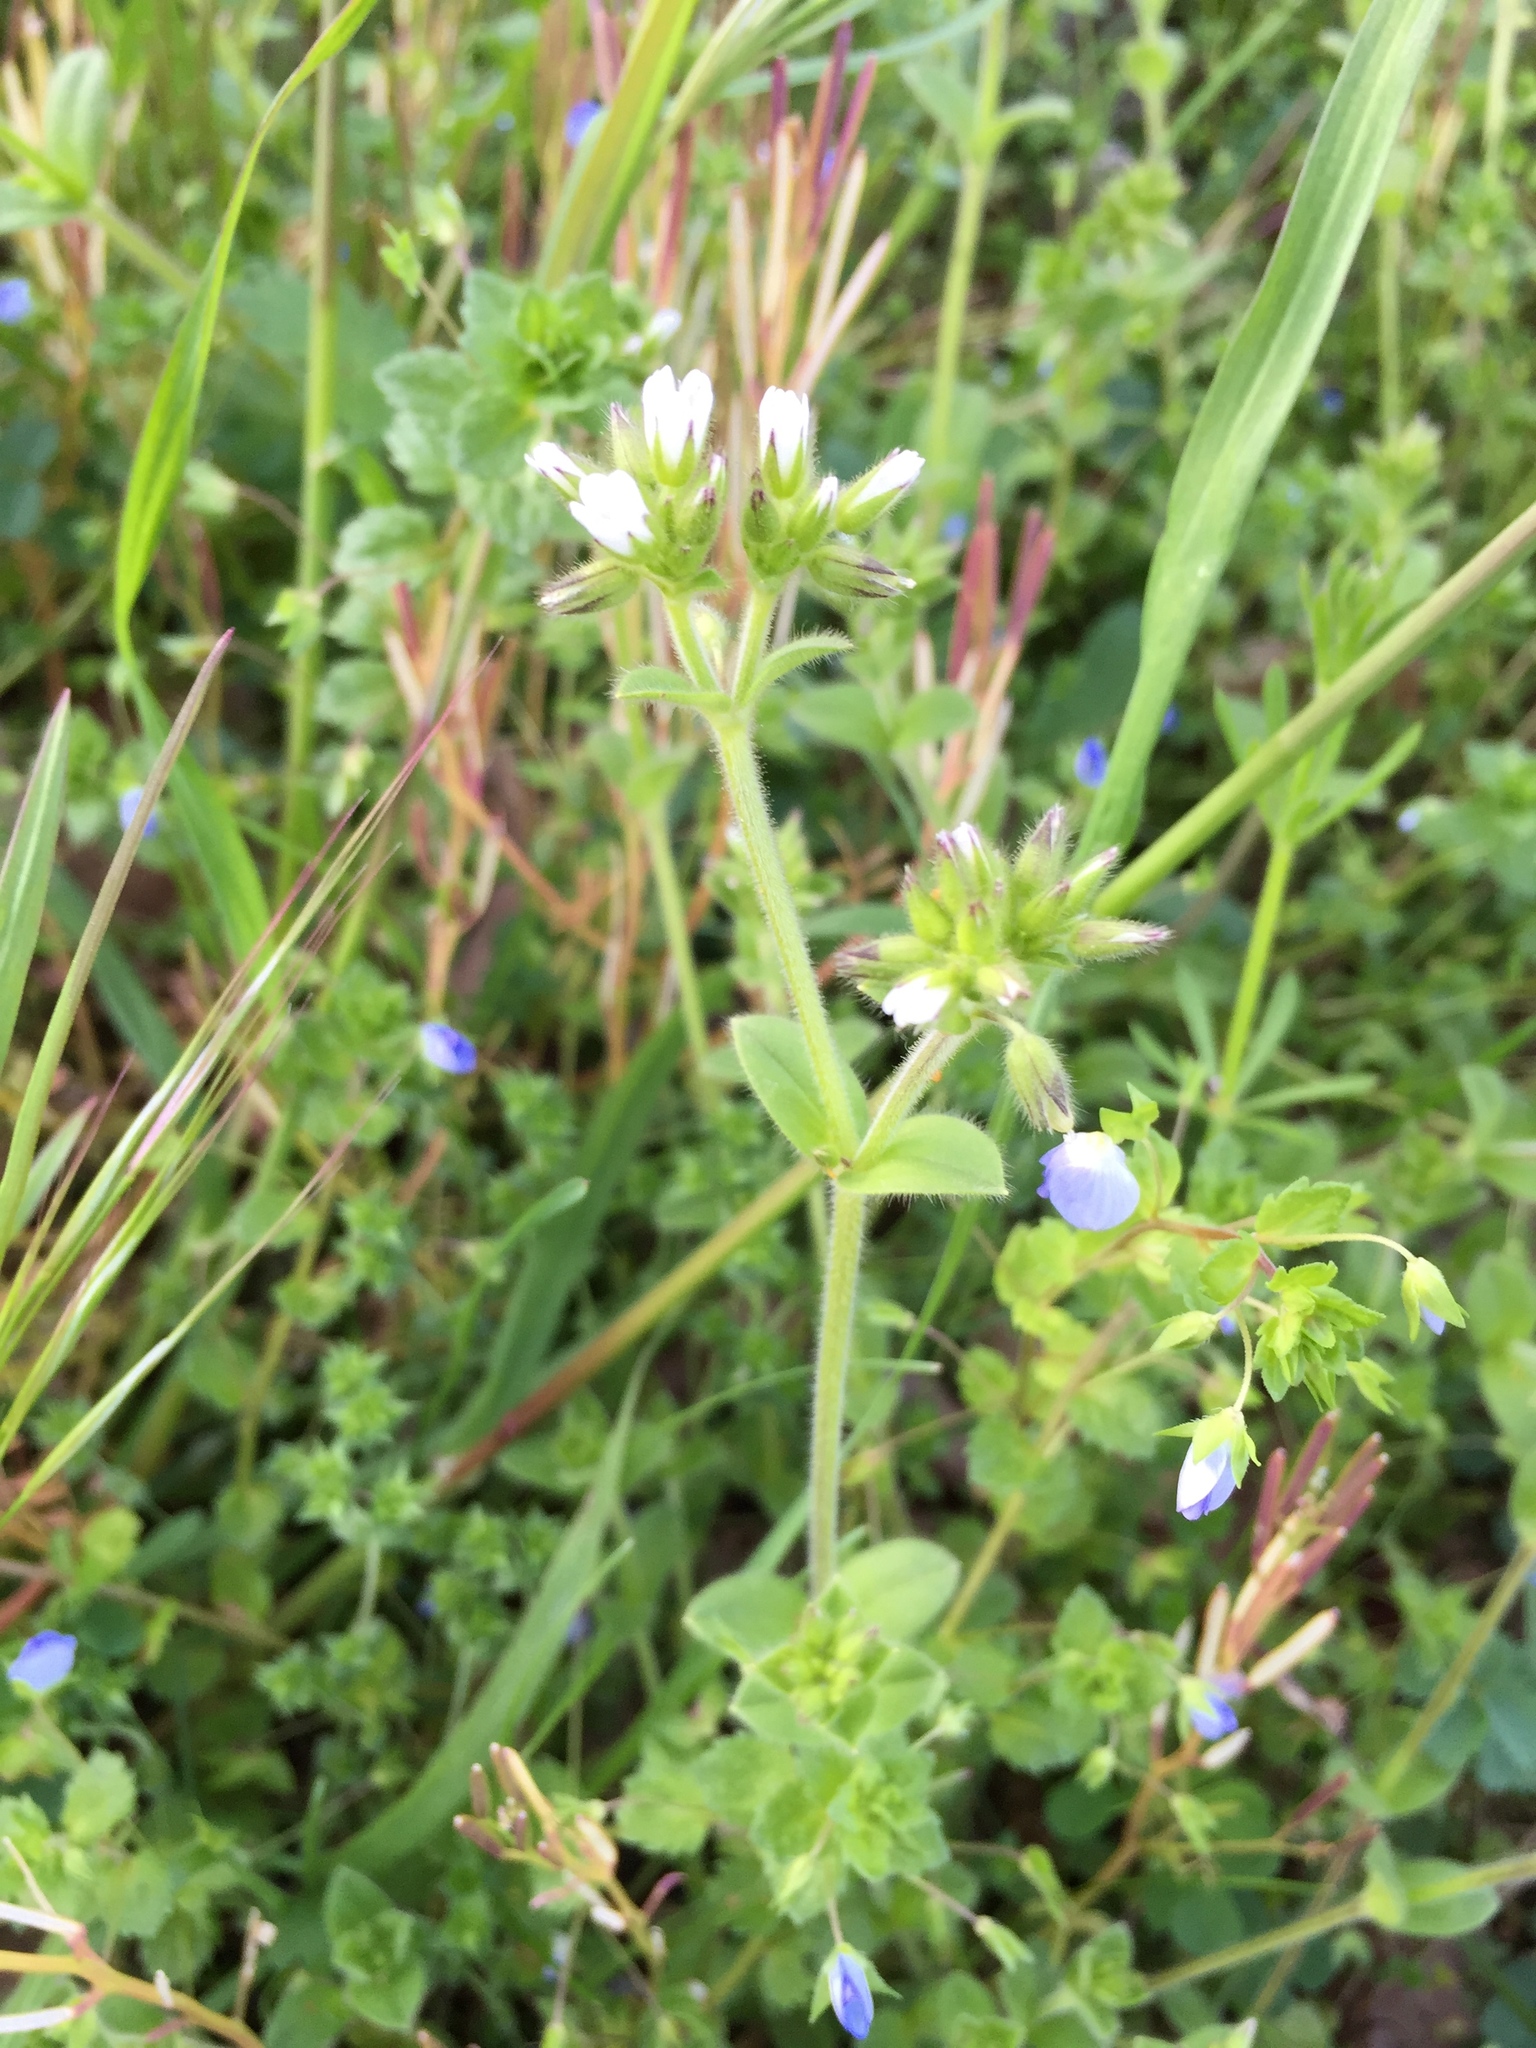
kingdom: Plantae
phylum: Tracheophyta
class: Magnoliopsida
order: Caryophyllales
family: Caryophyllaceae
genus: Cerastium
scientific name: Cerastium glomeratum
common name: Sticky chickweed
